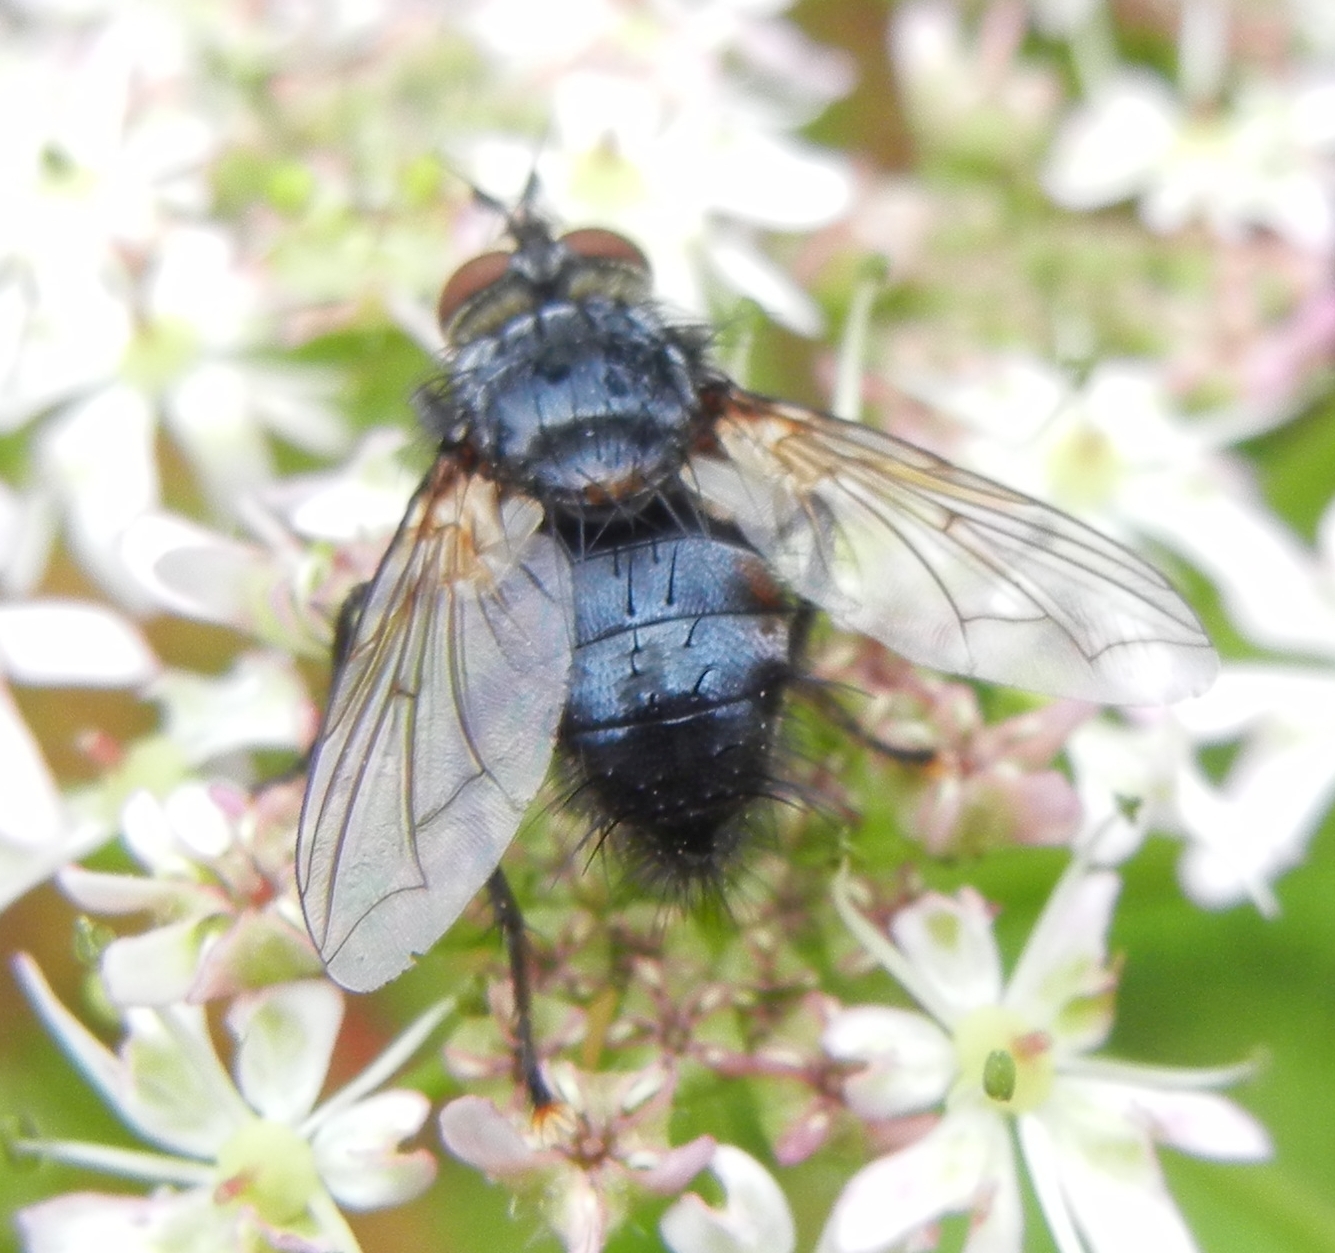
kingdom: Animalia
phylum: Arthropoda
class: Insecta
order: Diptera
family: Tachinidae
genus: Eurithia
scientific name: Eurithia anthophila
